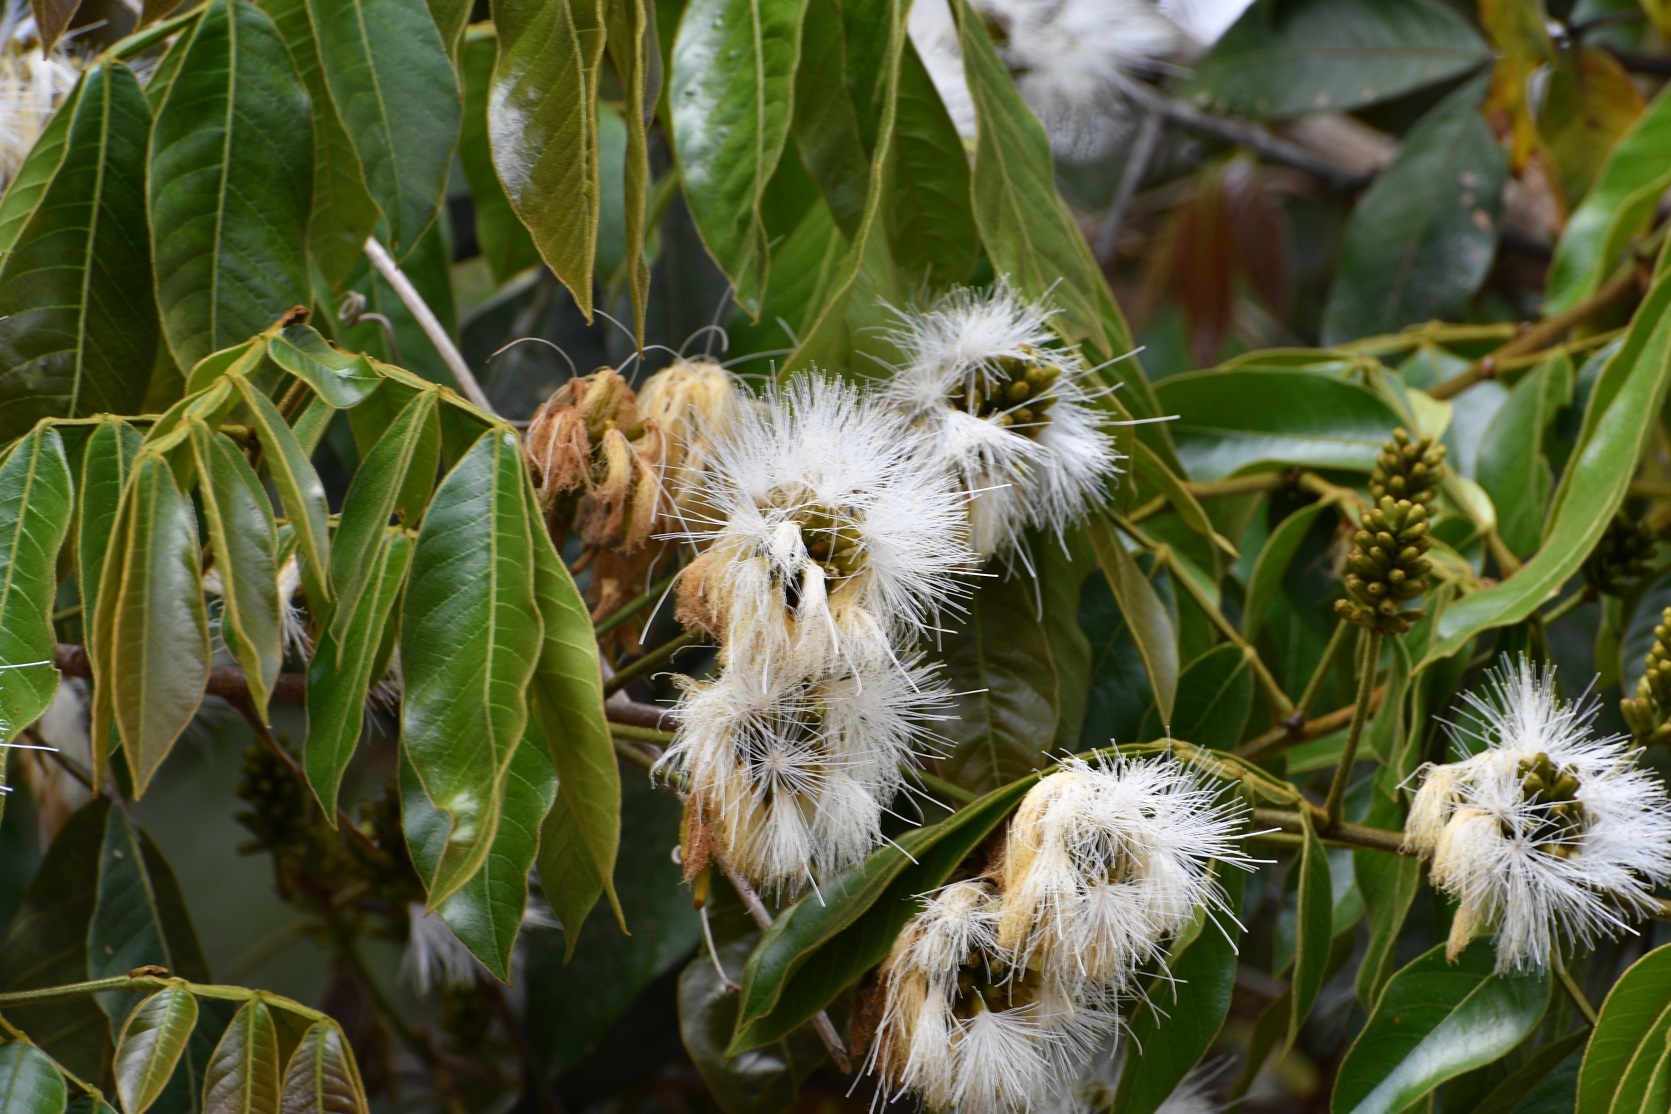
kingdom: Plantae
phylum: Tracheophyta
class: Magnoliopsida
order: Fabales
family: Fabaceae
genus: Inga
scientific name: Inga chiapensis
